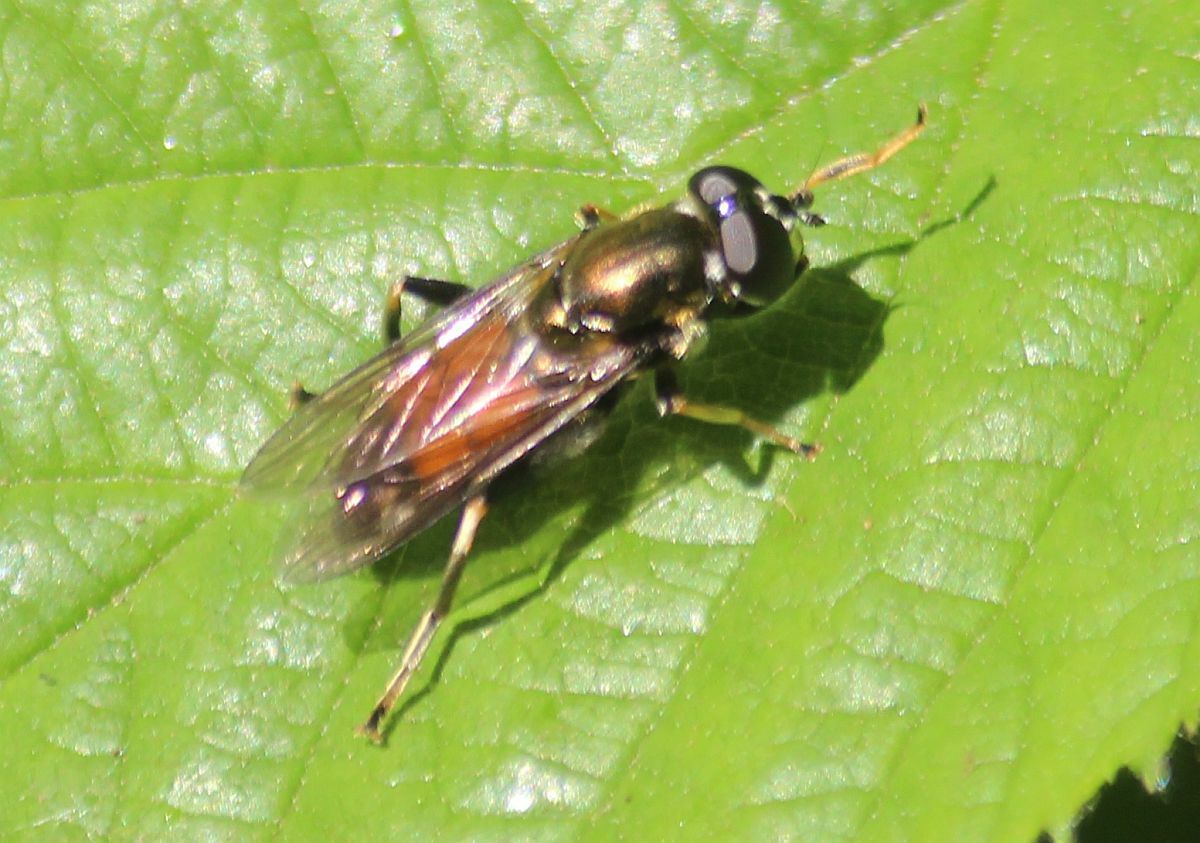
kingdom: Animalia
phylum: Arthropoda
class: Insecta
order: Diptera
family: Syrphidae
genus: Xylota
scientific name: Xylota segnis
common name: Brown-toed forest fly
